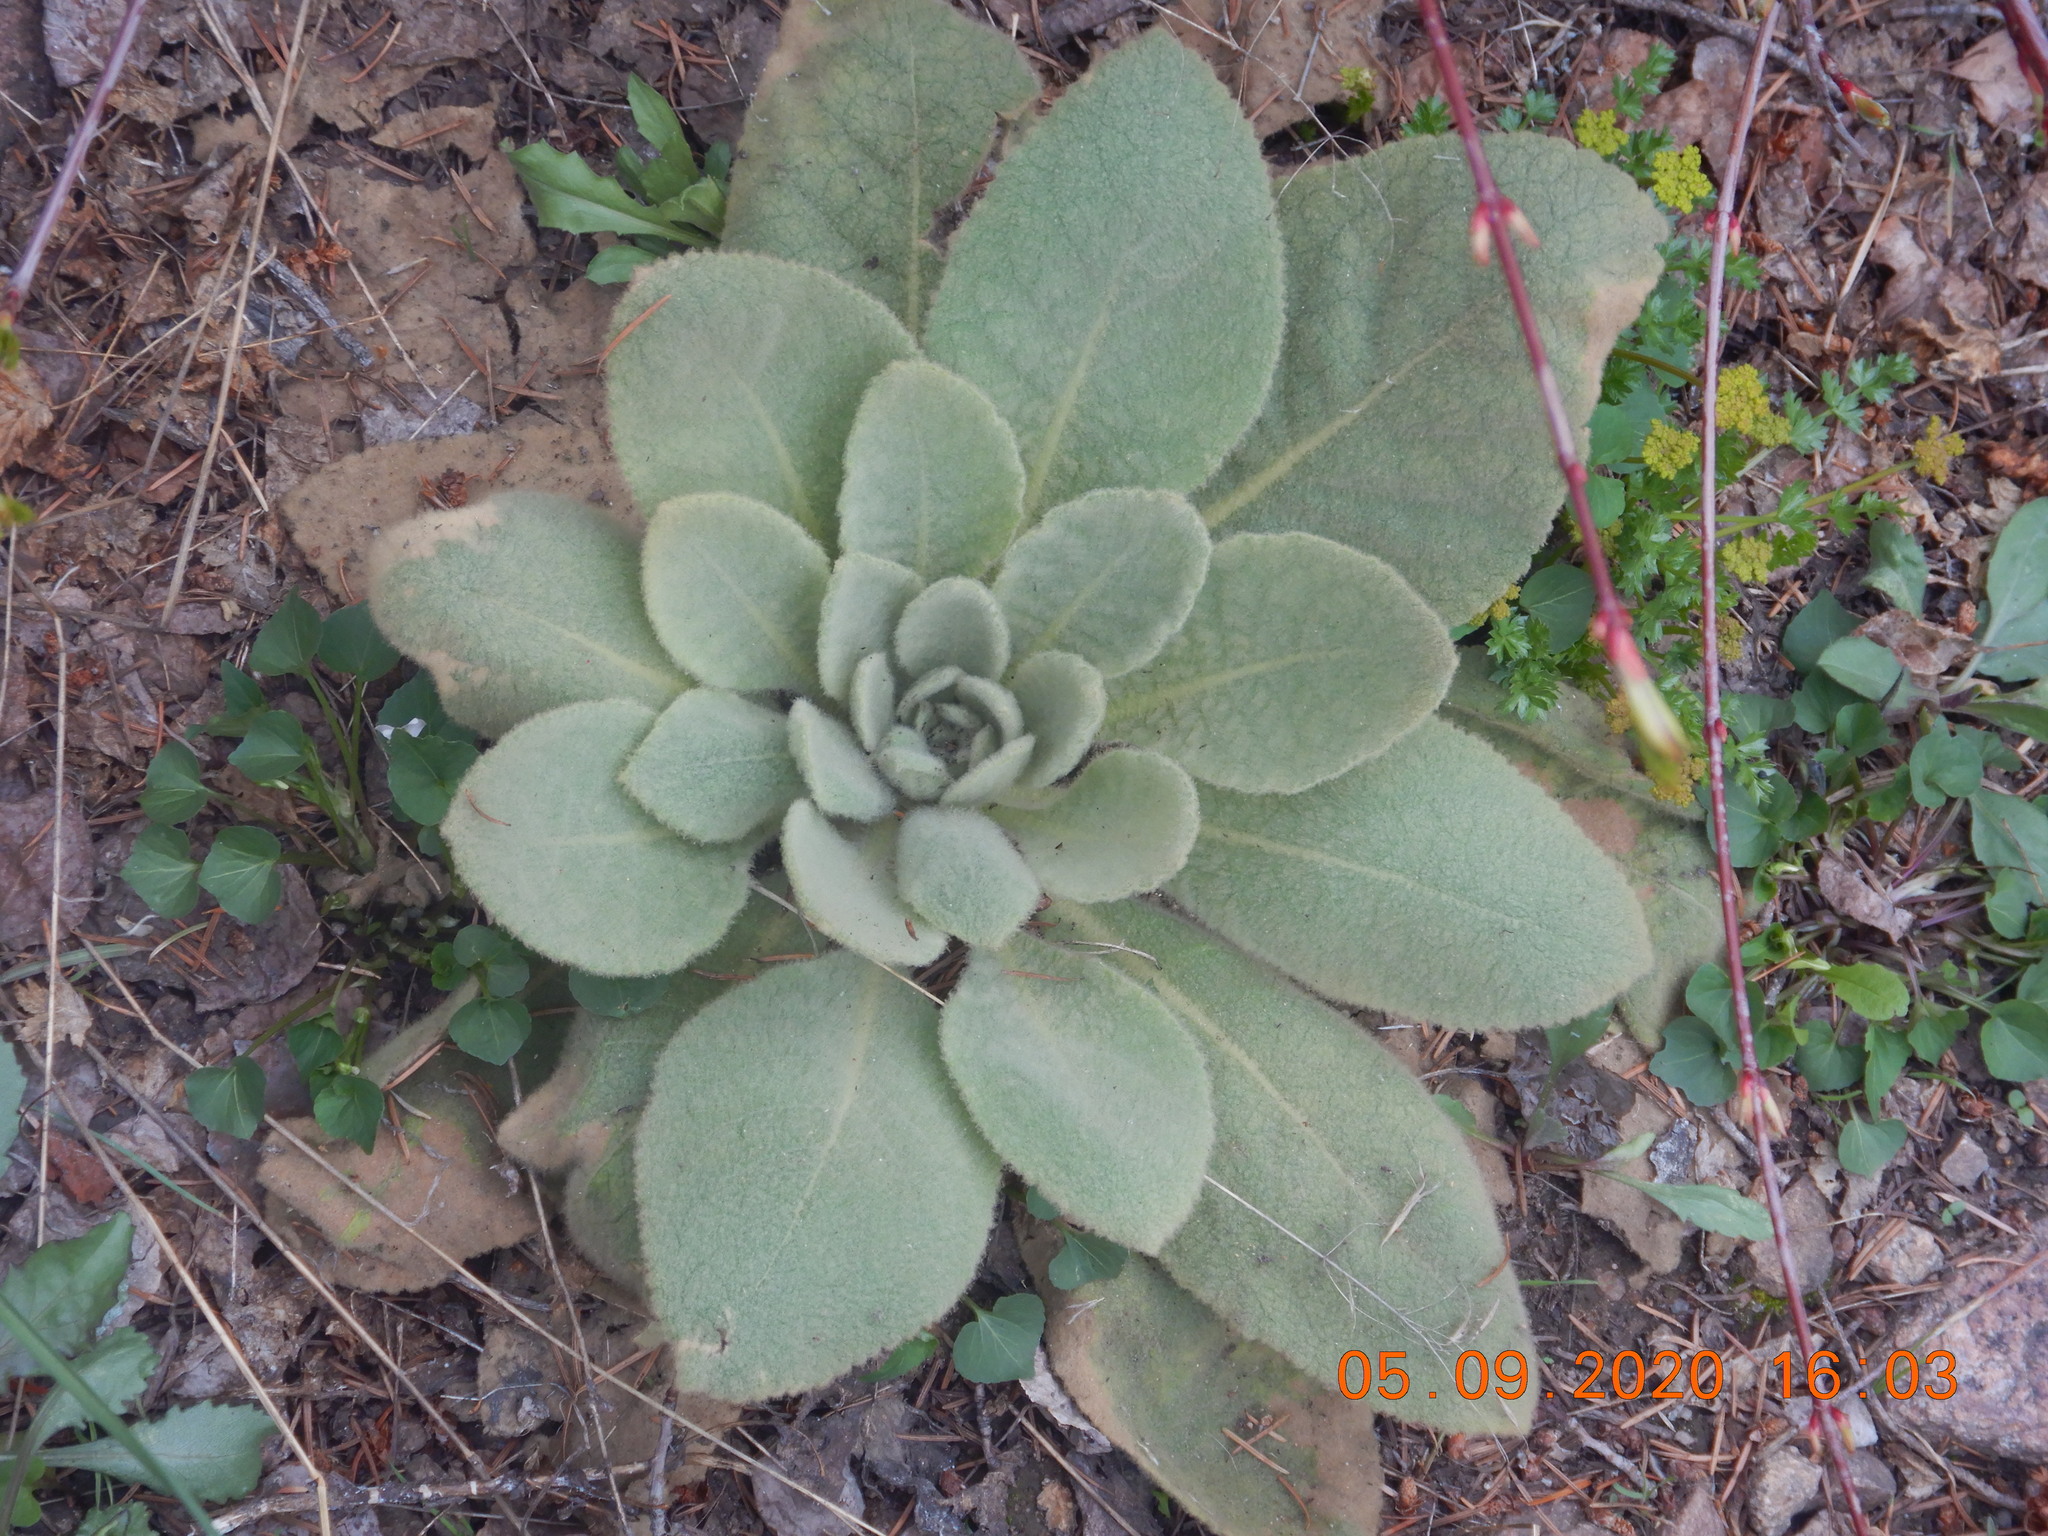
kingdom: Plantae
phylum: Tracheophyta
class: Magnoliopsida
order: Lamiales
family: Scrophulariaceae
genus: Verbascum
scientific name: Verbascum thapsus
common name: Common mullein
